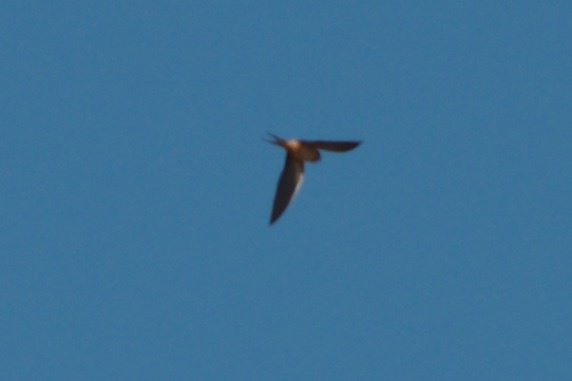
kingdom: Animalia
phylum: Chordata
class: Aves
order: Passeriformes
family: Hirundinidae
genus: Hirundo
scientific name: Hirundo rustica
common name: Barn swallow
